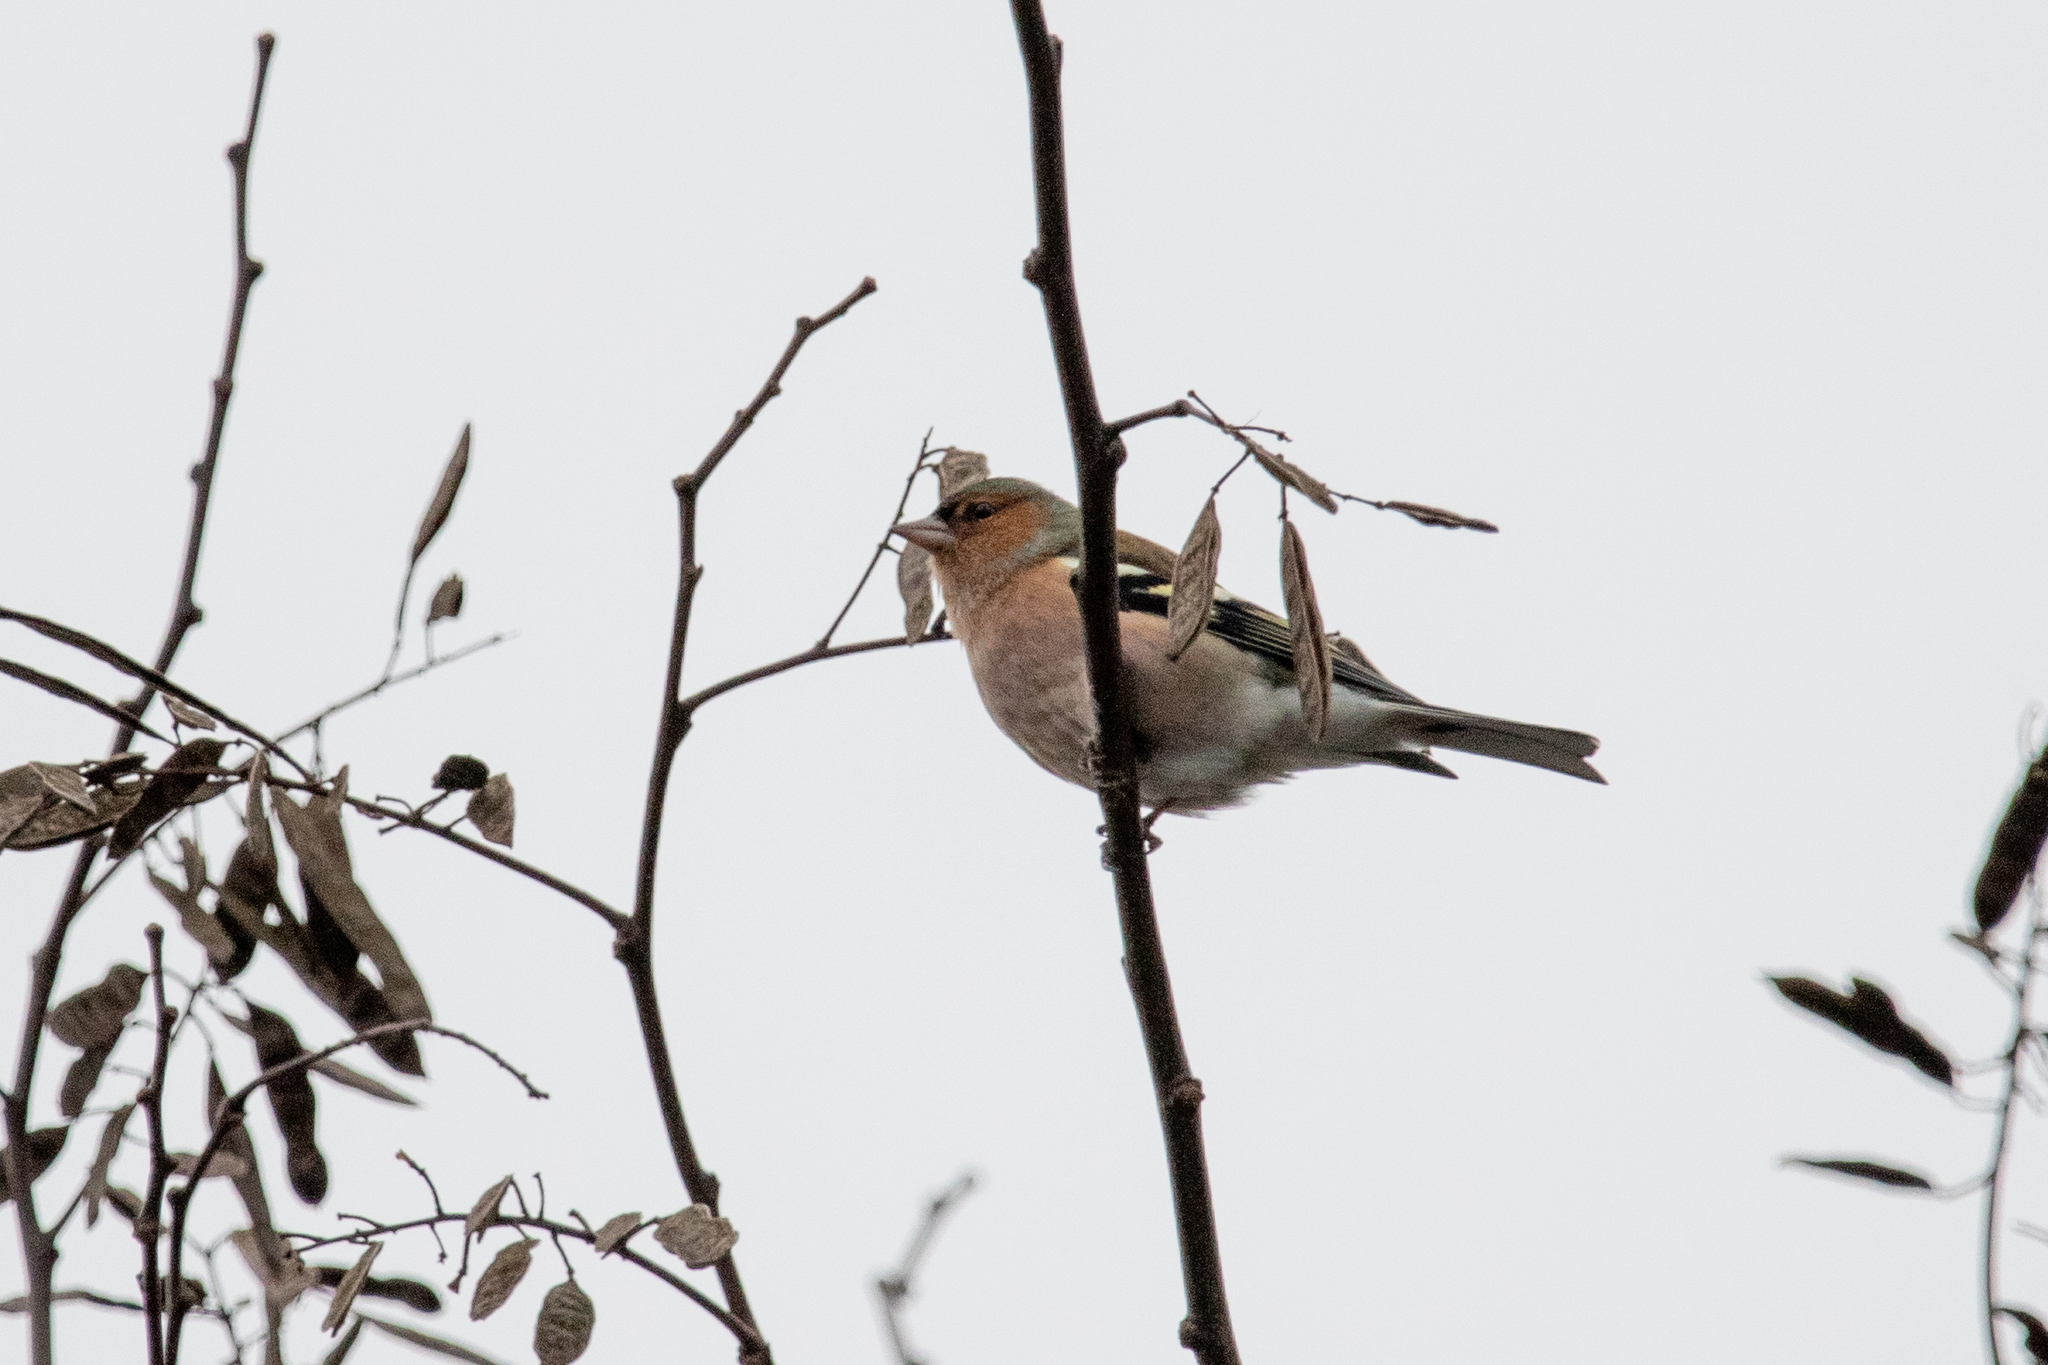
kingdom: Animalia
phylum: Chordata
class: Aves
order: Passeriformes
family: Fringillidae
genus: Fringilla
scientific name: Fringilla coelebs
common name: Common chaffinch
